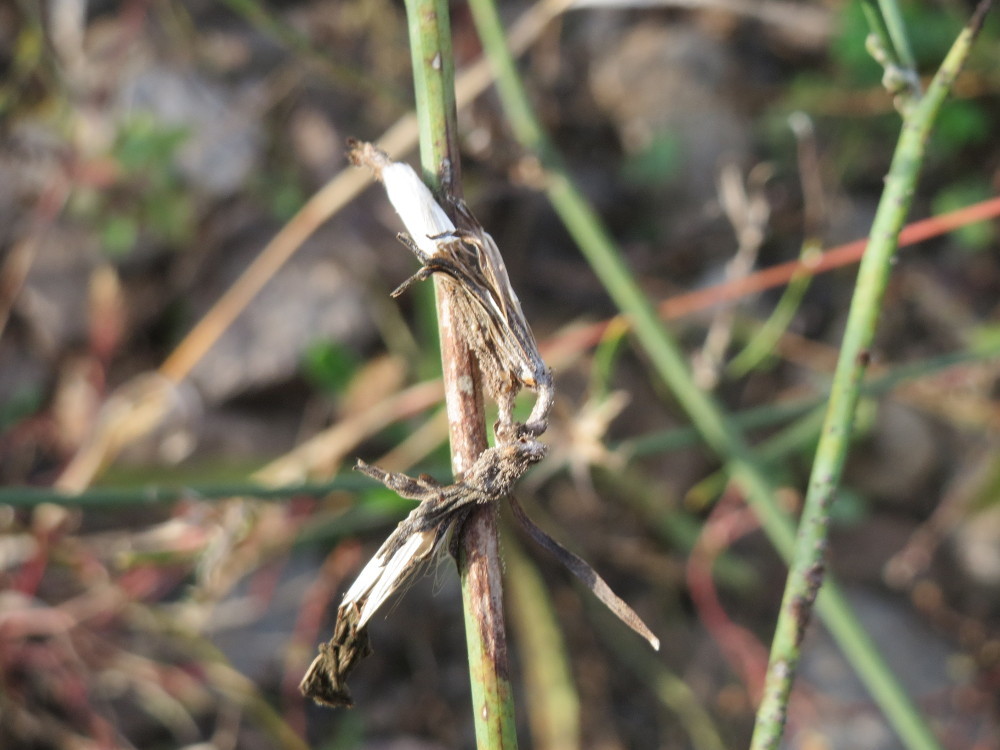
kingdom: Plantae
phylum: Tracheophyta
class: Magnoliopsida
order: Asterales
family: Asteraceae
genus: Chondrilla
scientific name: Chondrilla juncea
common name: Skeleton weed
